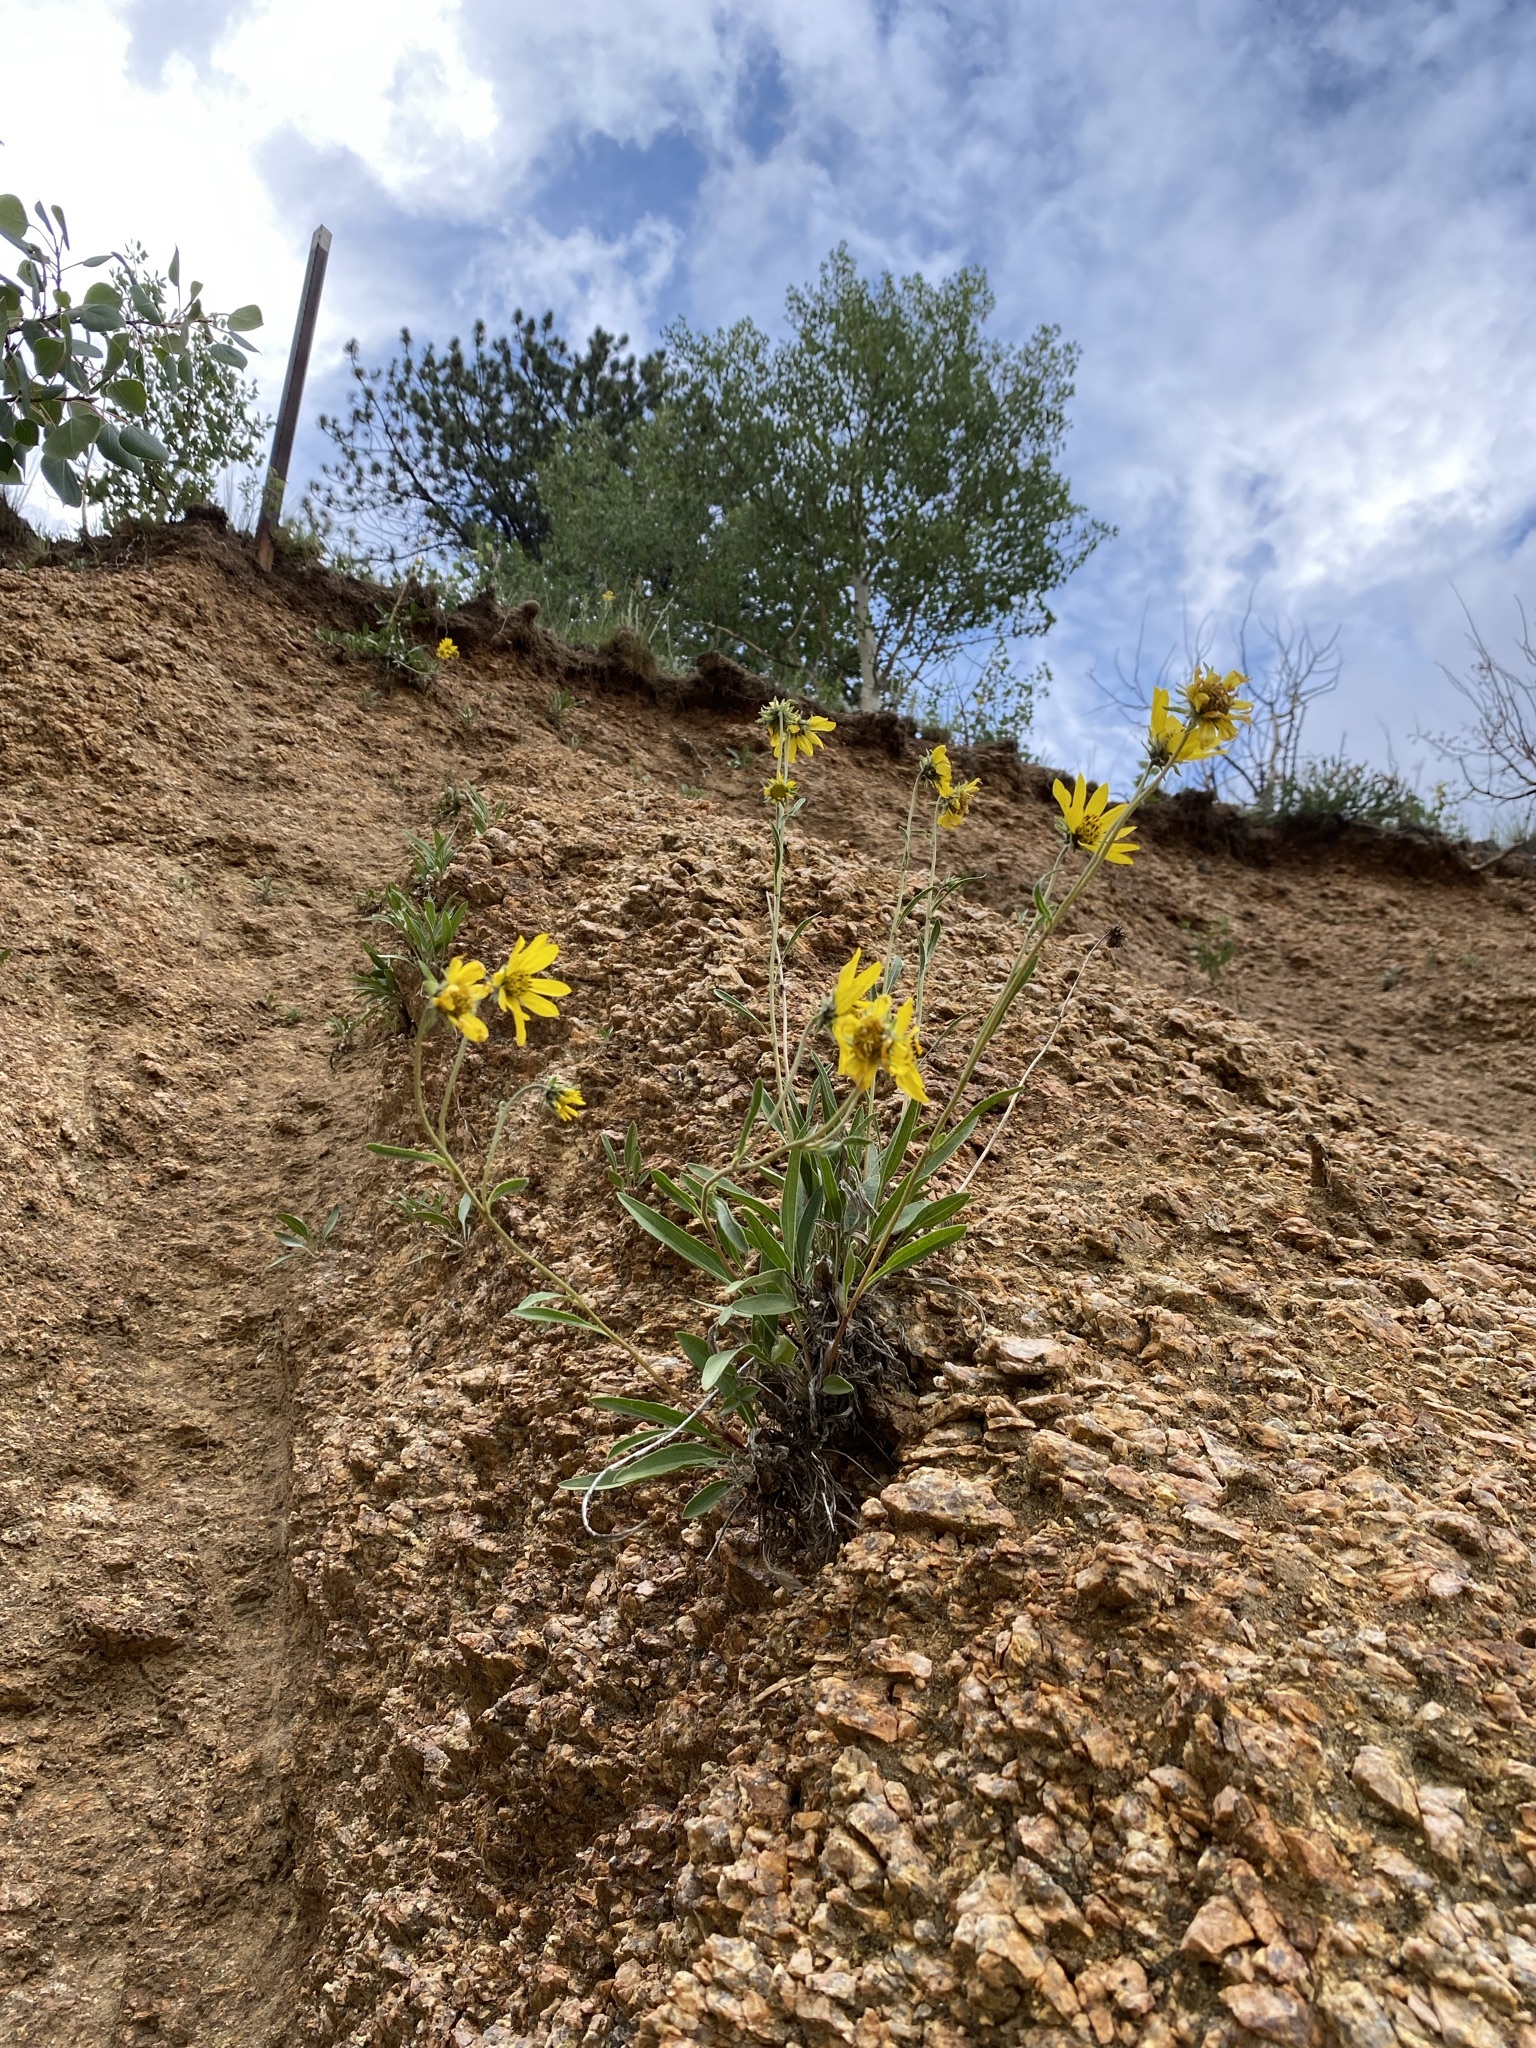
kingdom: Plantae
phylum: Tracheophyta
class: Magnoliopsida
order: Asterales
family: Asteraceae
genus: Helianthella
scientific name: Helianthella parryi
